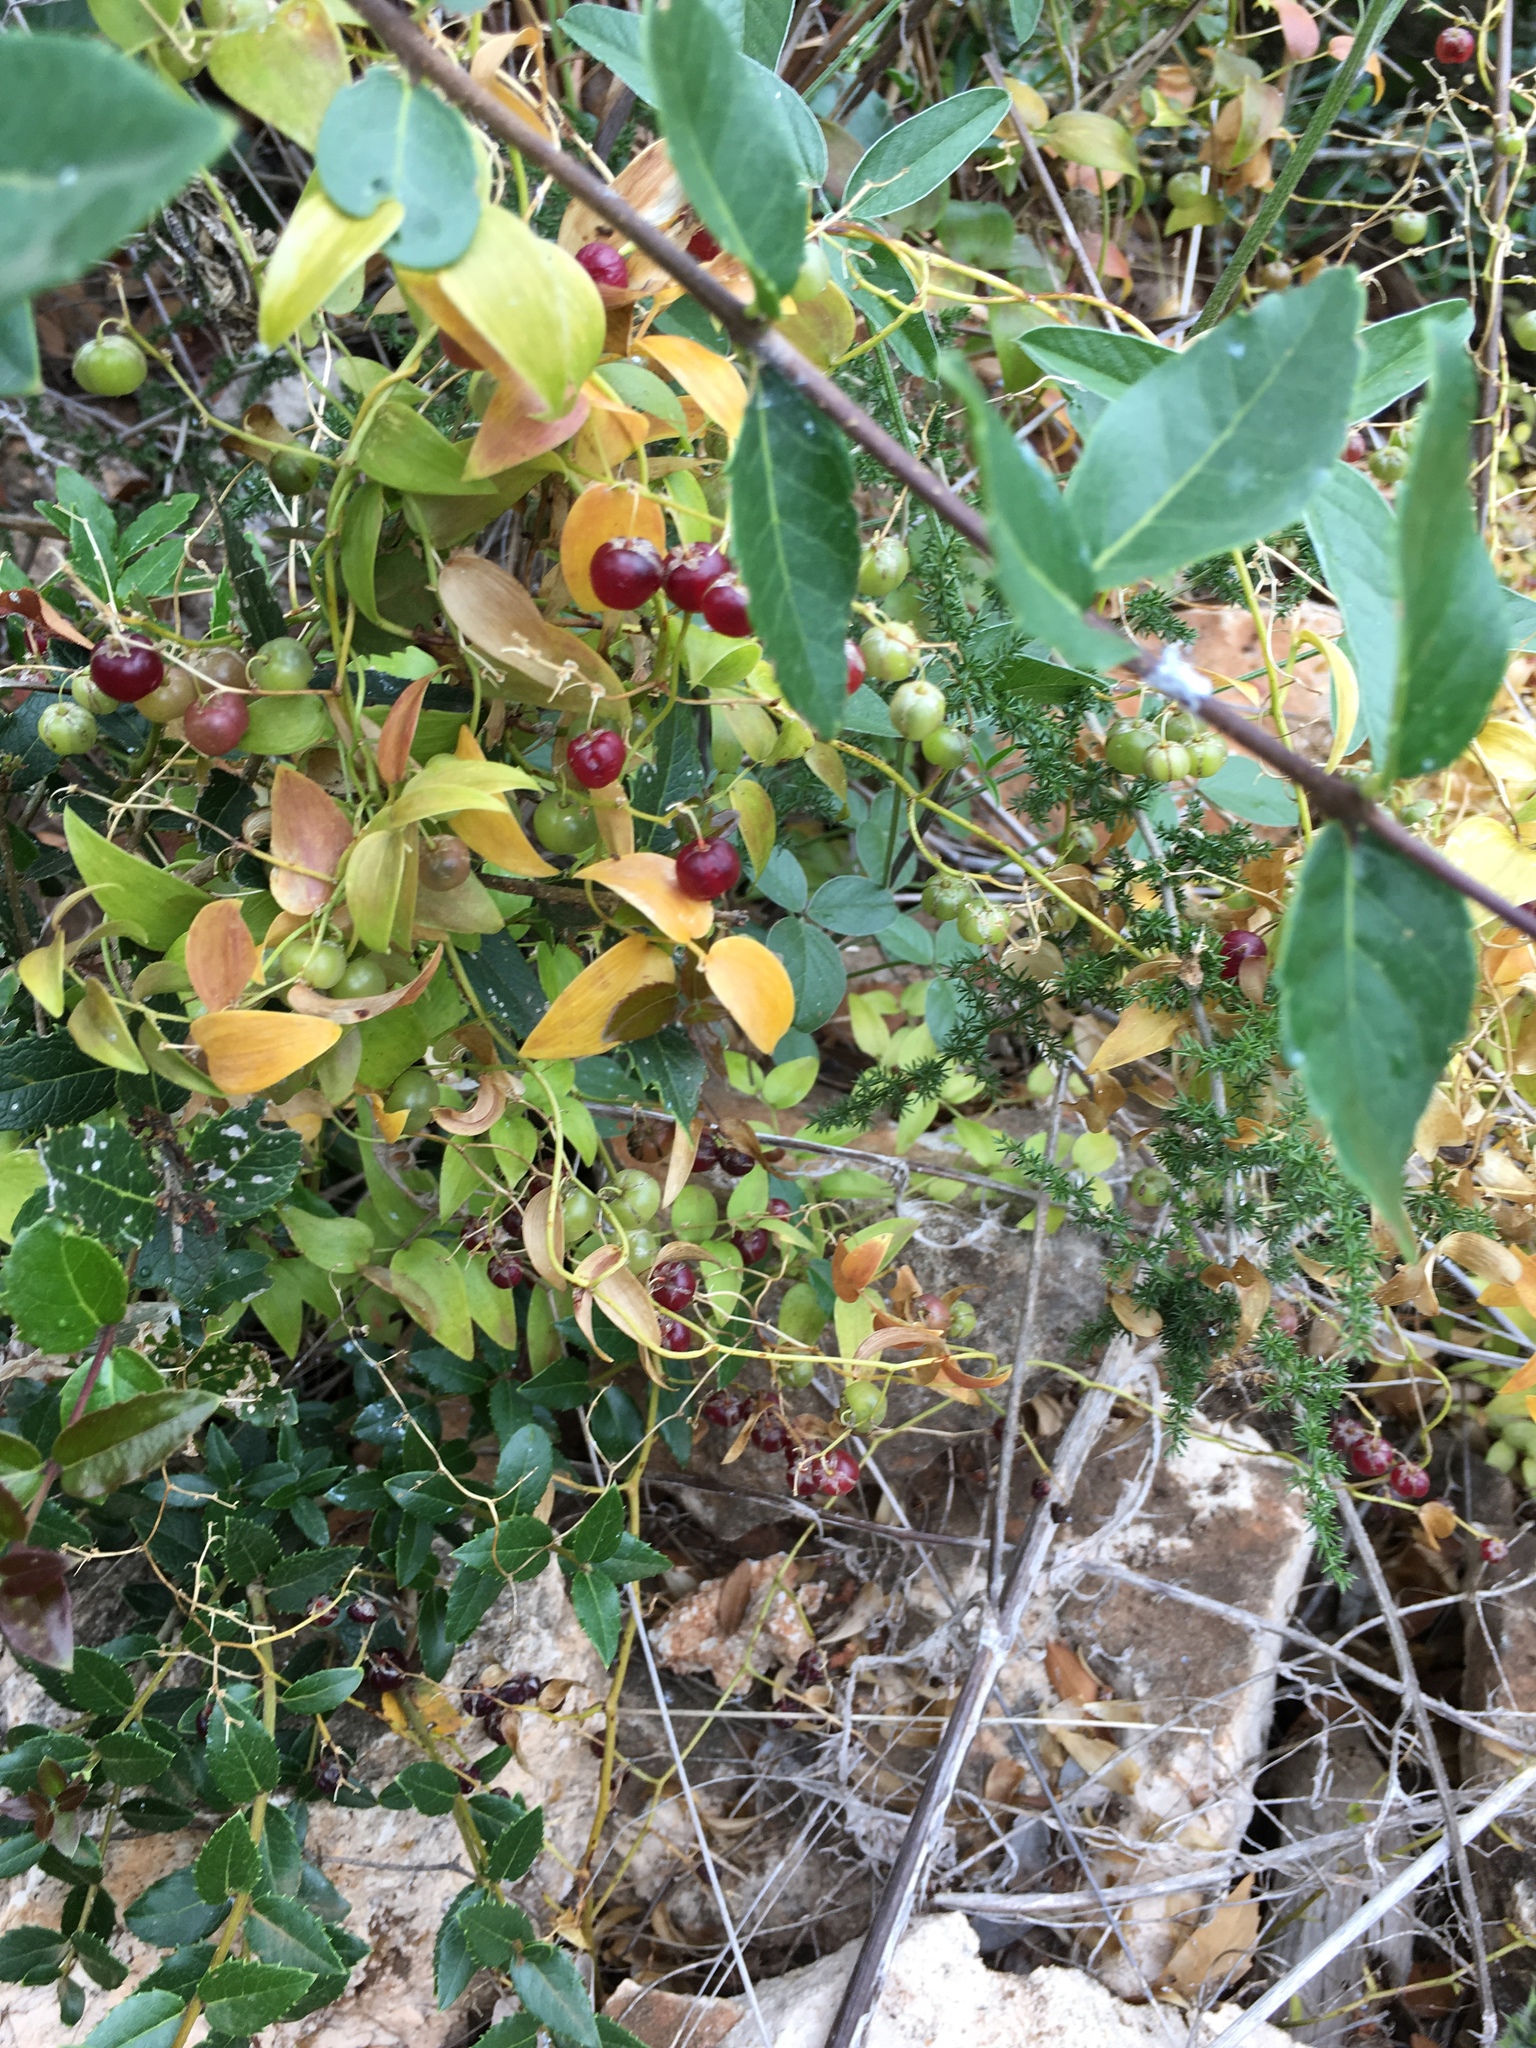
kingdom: Plantae
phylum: Tracheophyta
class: Liliopsida
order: Liliales
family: Smilacaceae
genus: Smilax
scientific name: Smilax aspera
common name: Common smilax
